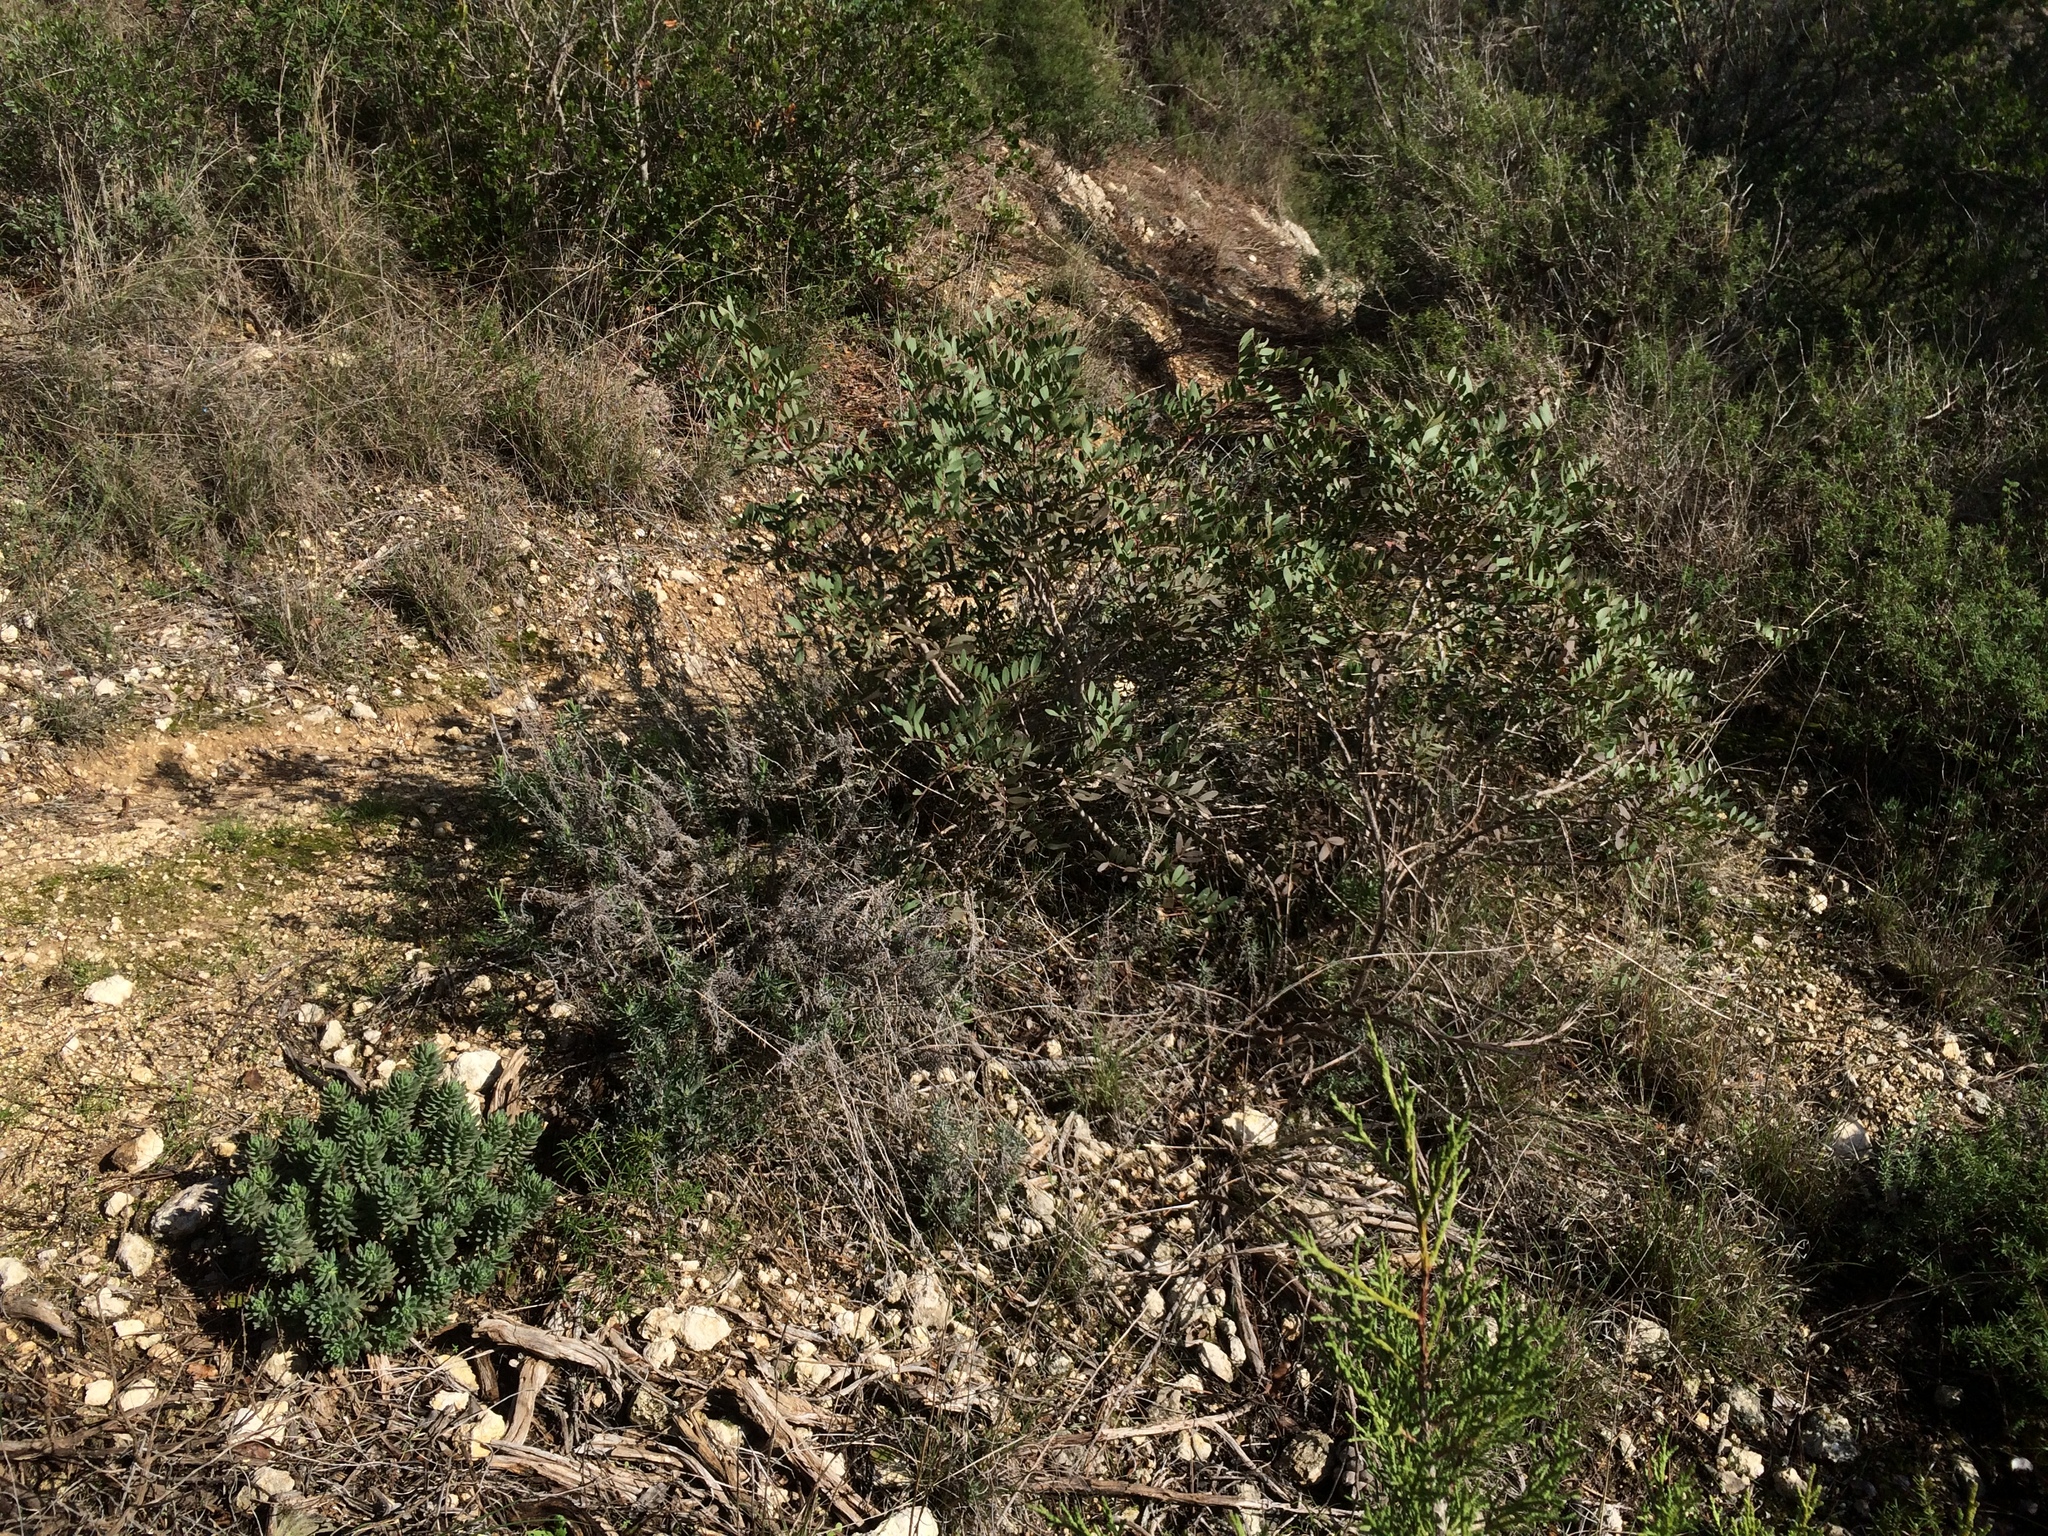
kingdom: Plantae
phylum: Tracheophyta
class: Magnoliopsida
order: Saxifragales
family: Crassulaceae
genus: Petrosedum
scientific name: Petrosedum sediforme
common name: Pale stonecrop
